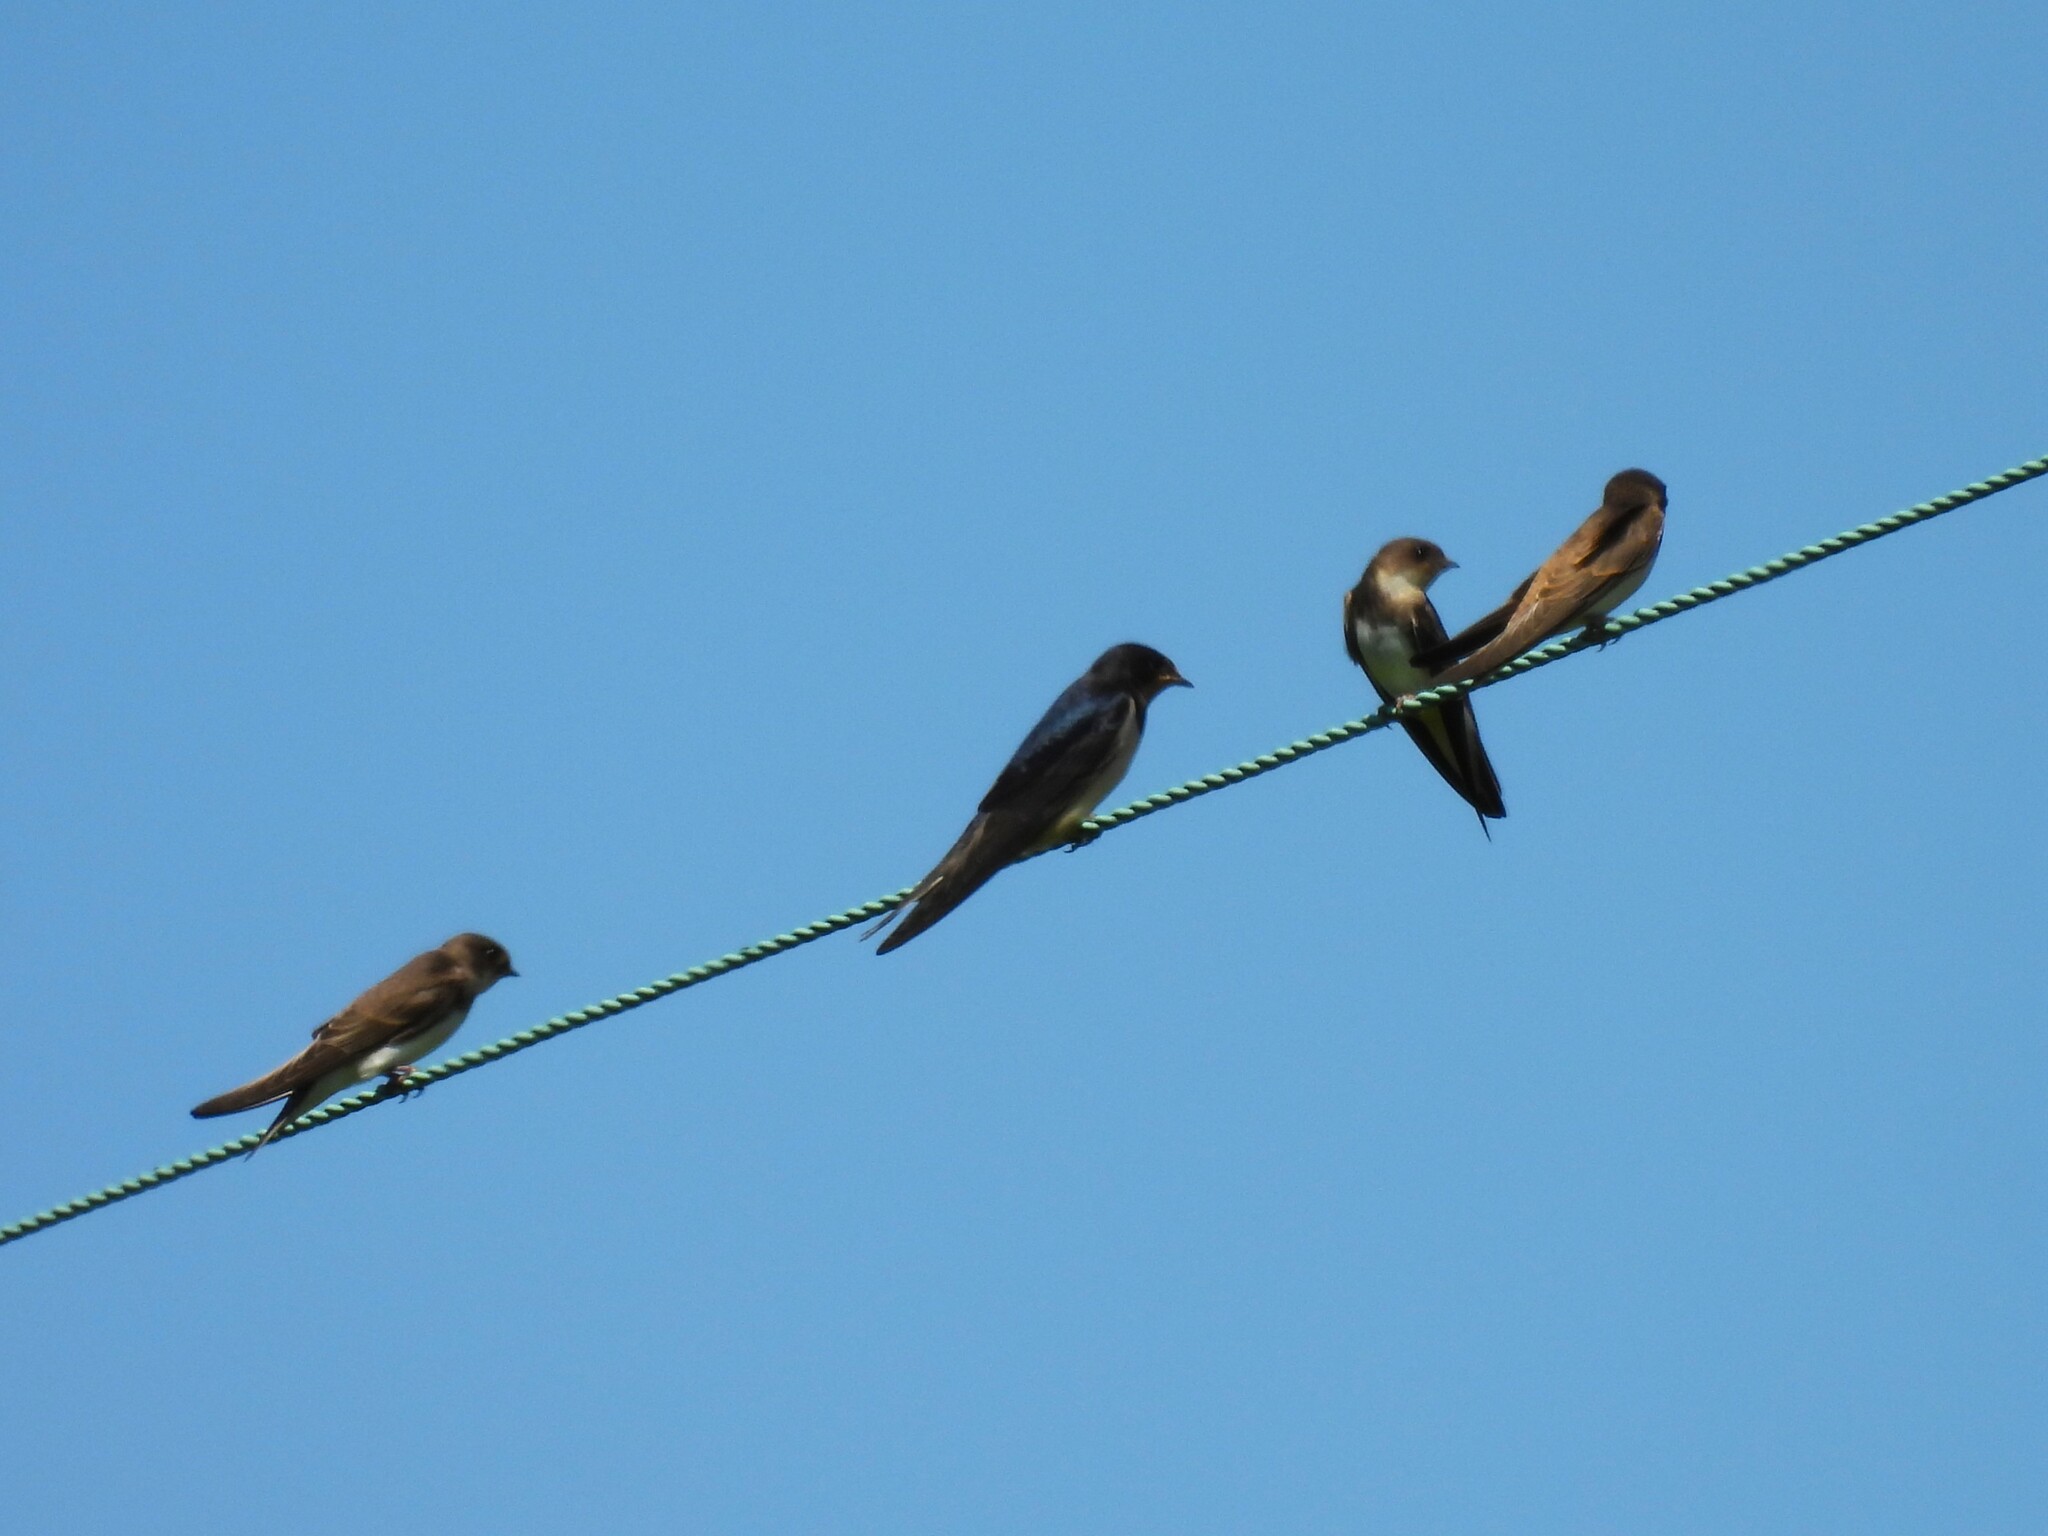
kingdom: Animalia
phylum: Chordata
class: Aves
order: Passeriformes
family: Hirundinidae
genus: Hirundo
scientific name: Hirundo rustica
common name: Barn swallow
